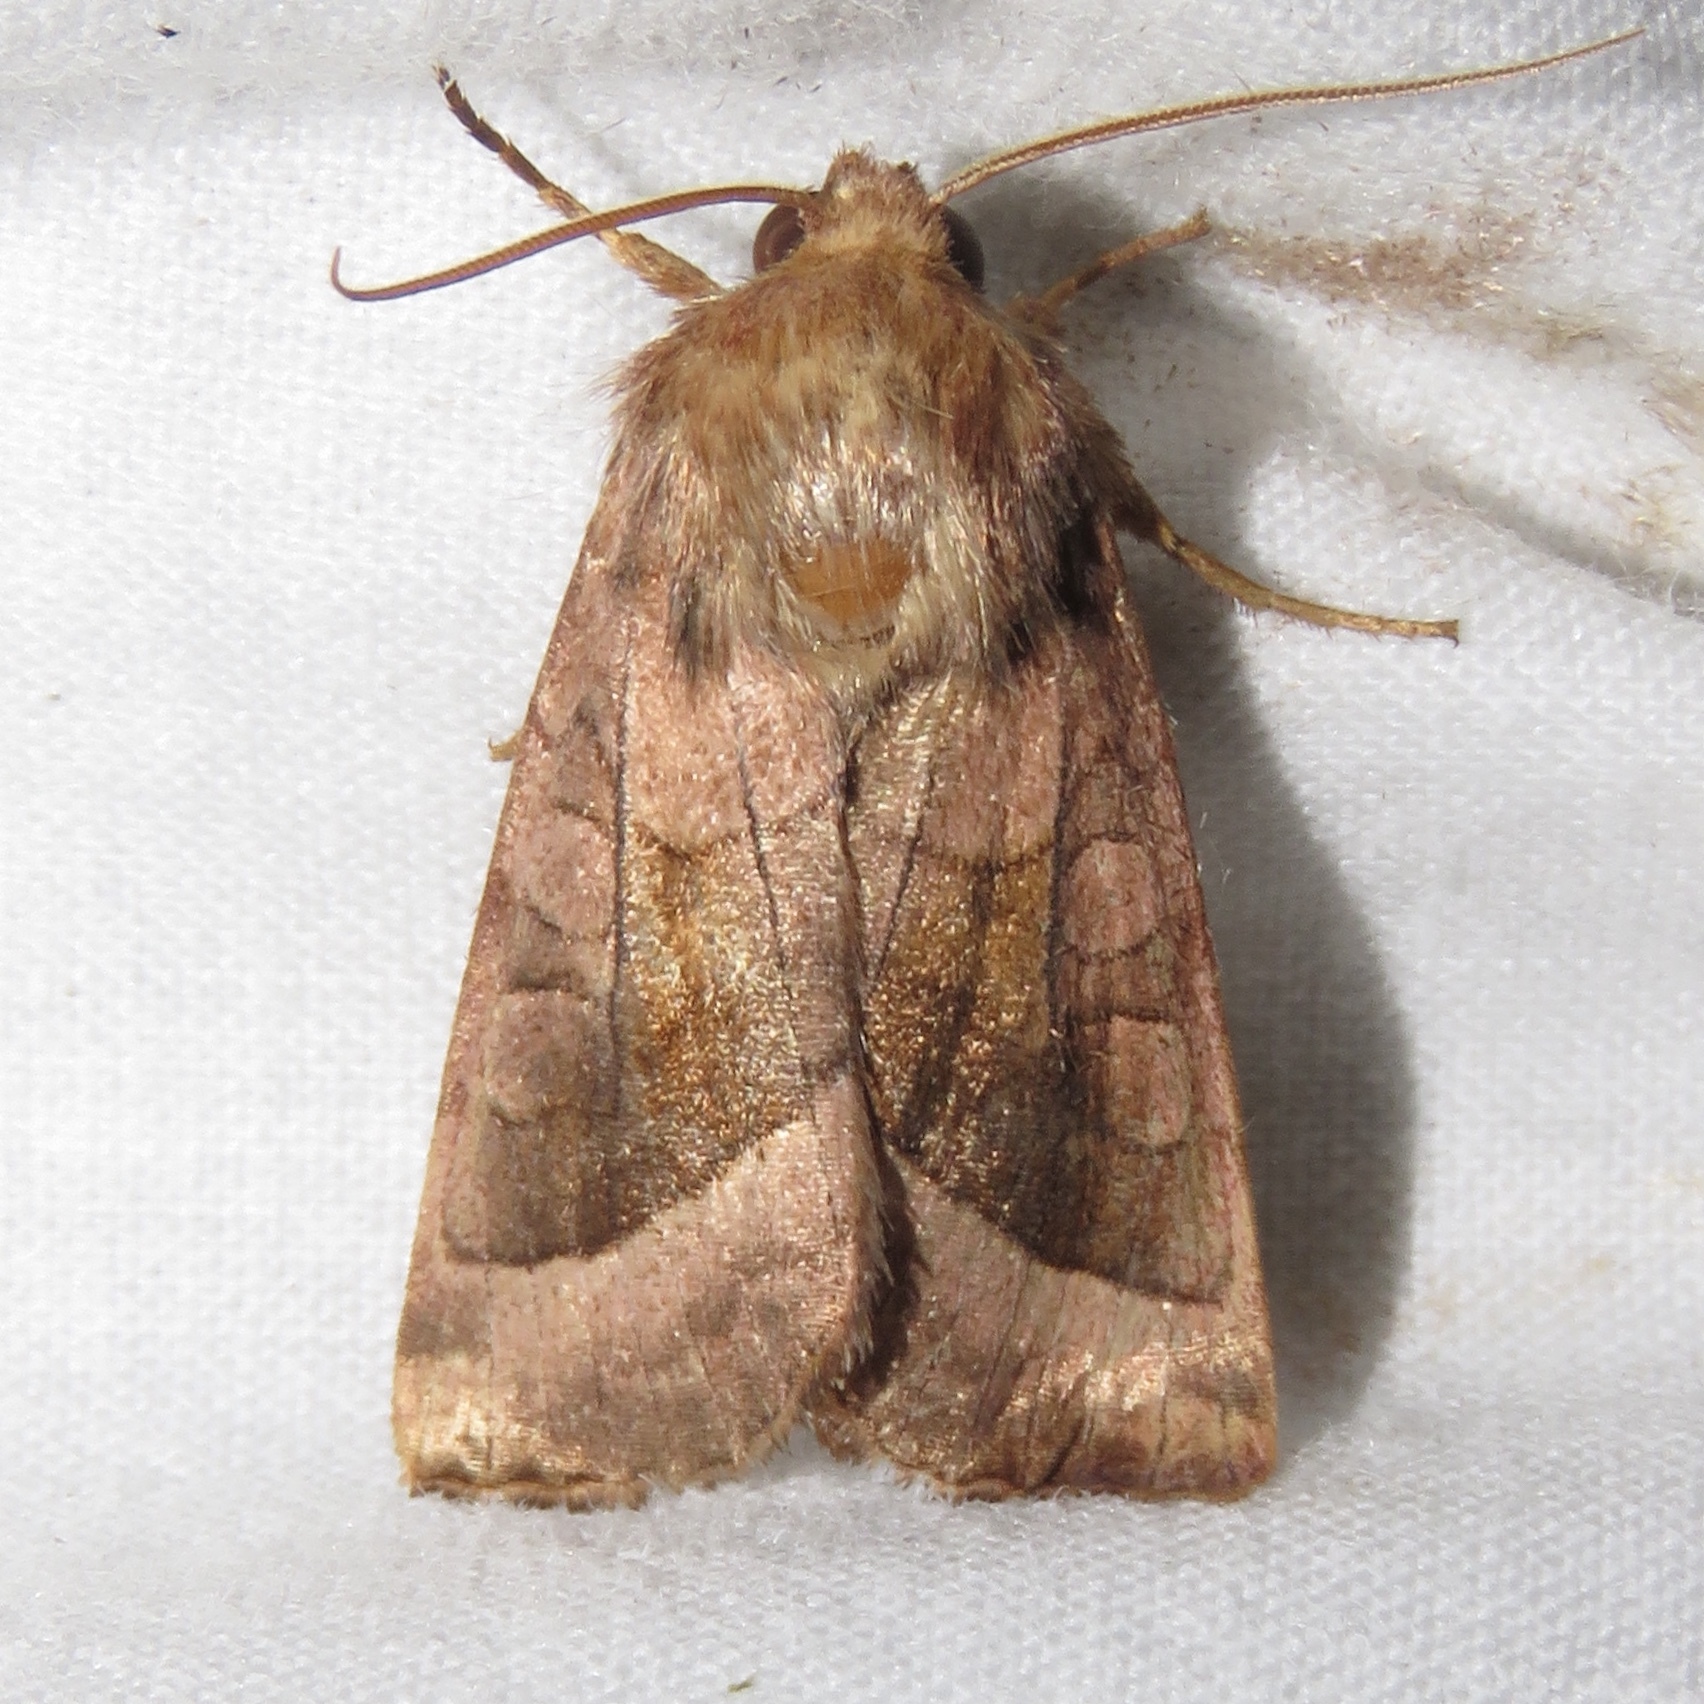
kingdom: Animalia
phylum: Arthropoda
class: Insecta
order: Lepidoptera
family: Noctuidae
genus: Hydraecia
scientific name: Hydraecia micacea
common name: Rosy rustic
